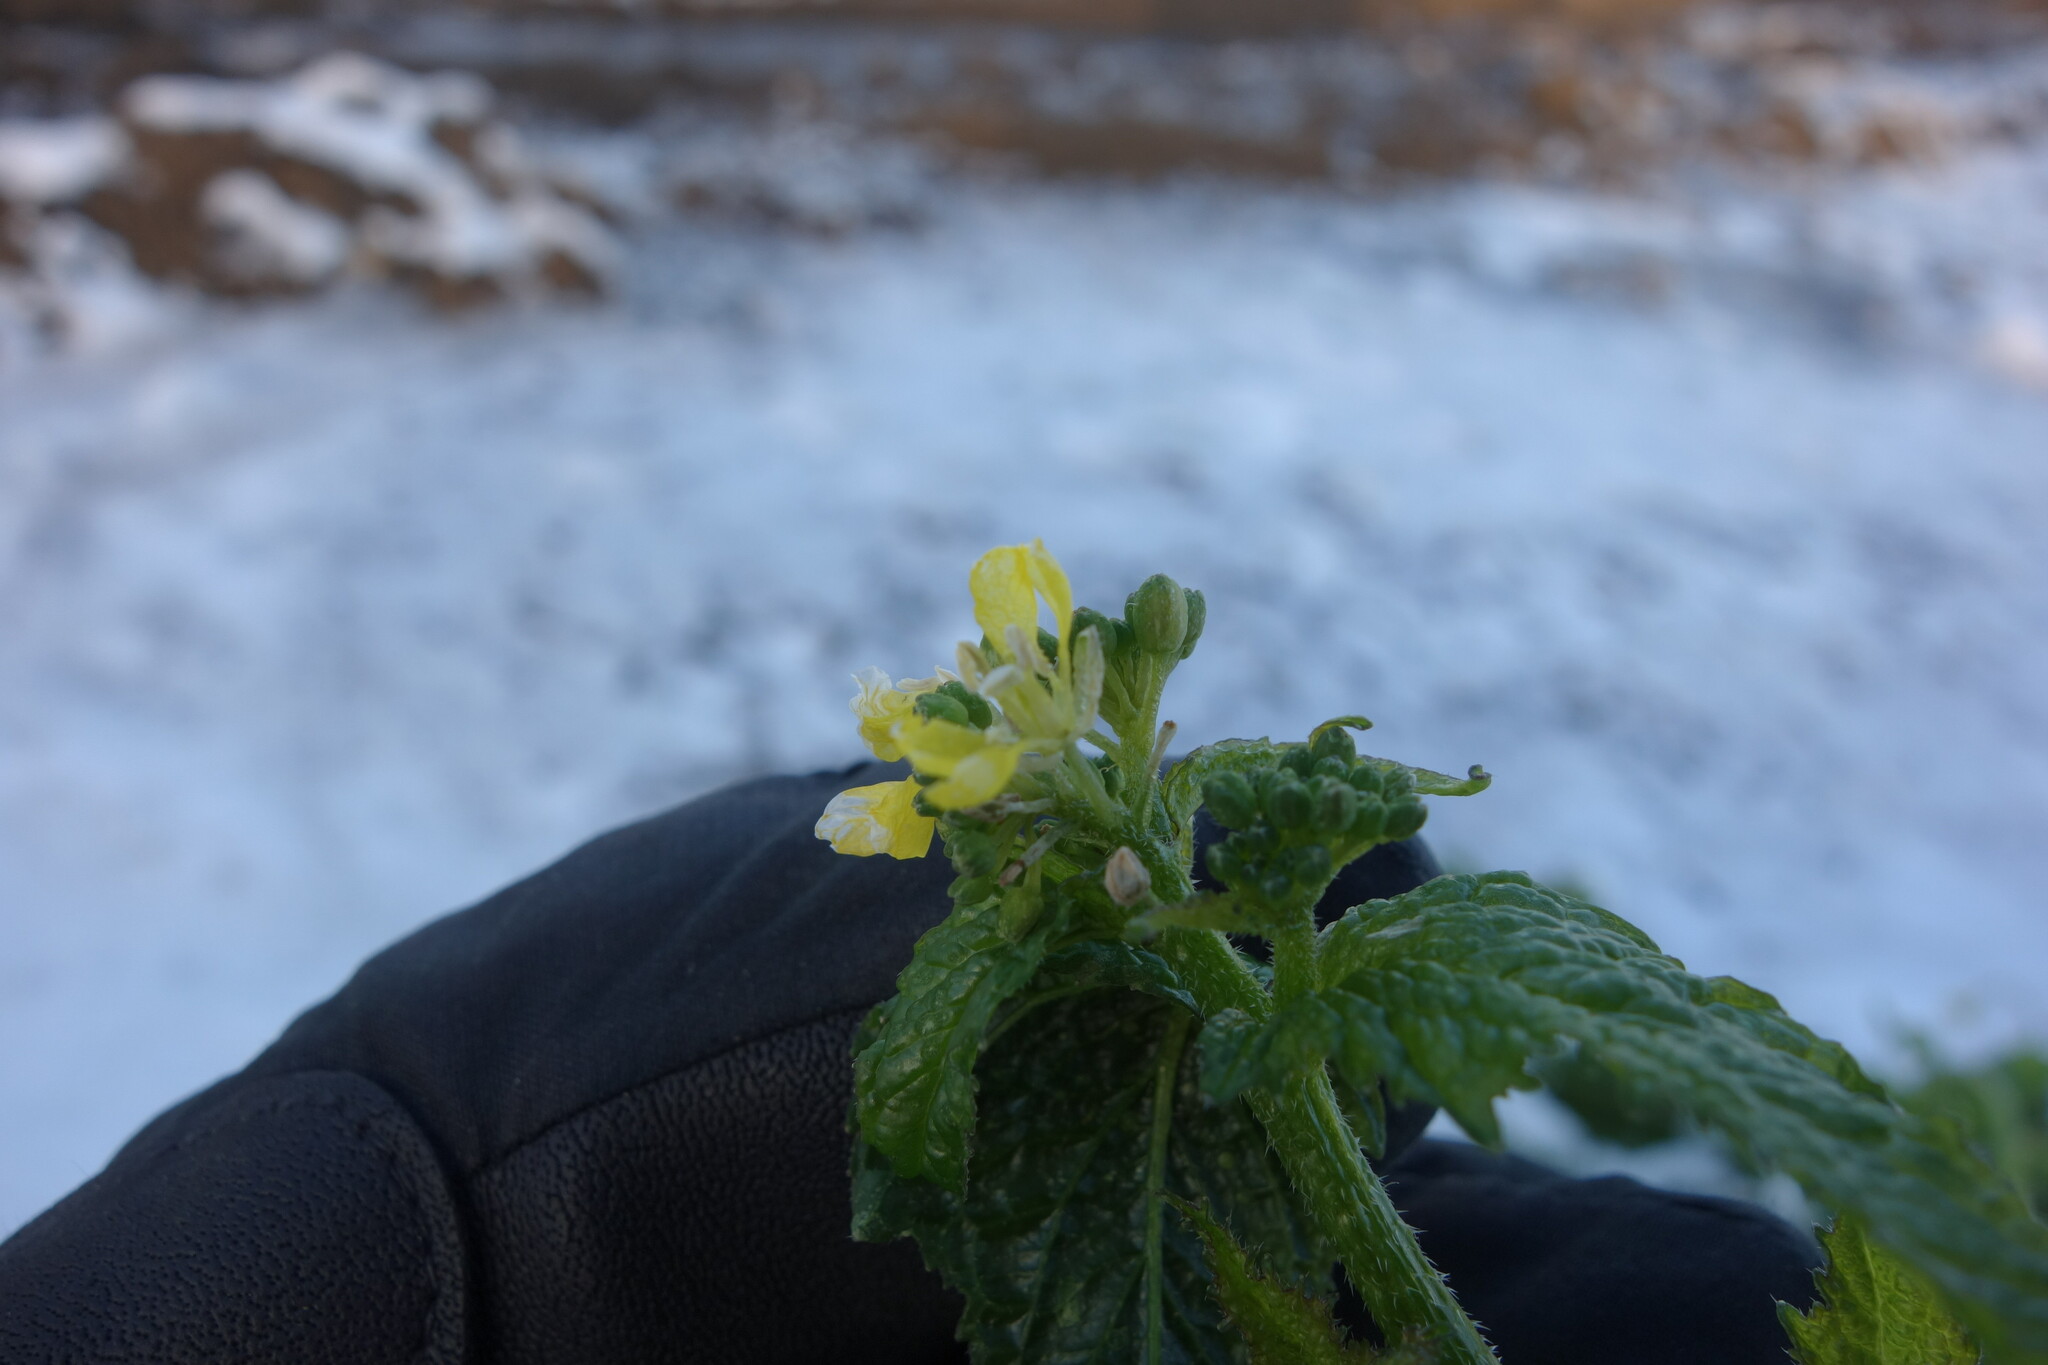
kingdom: Plantae
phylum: Tracheophyta
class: Magnoliopsida
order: Brassicales
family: Brassicaceae
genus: Sinapis
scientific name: Sinapis arvensis
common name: Charlock
